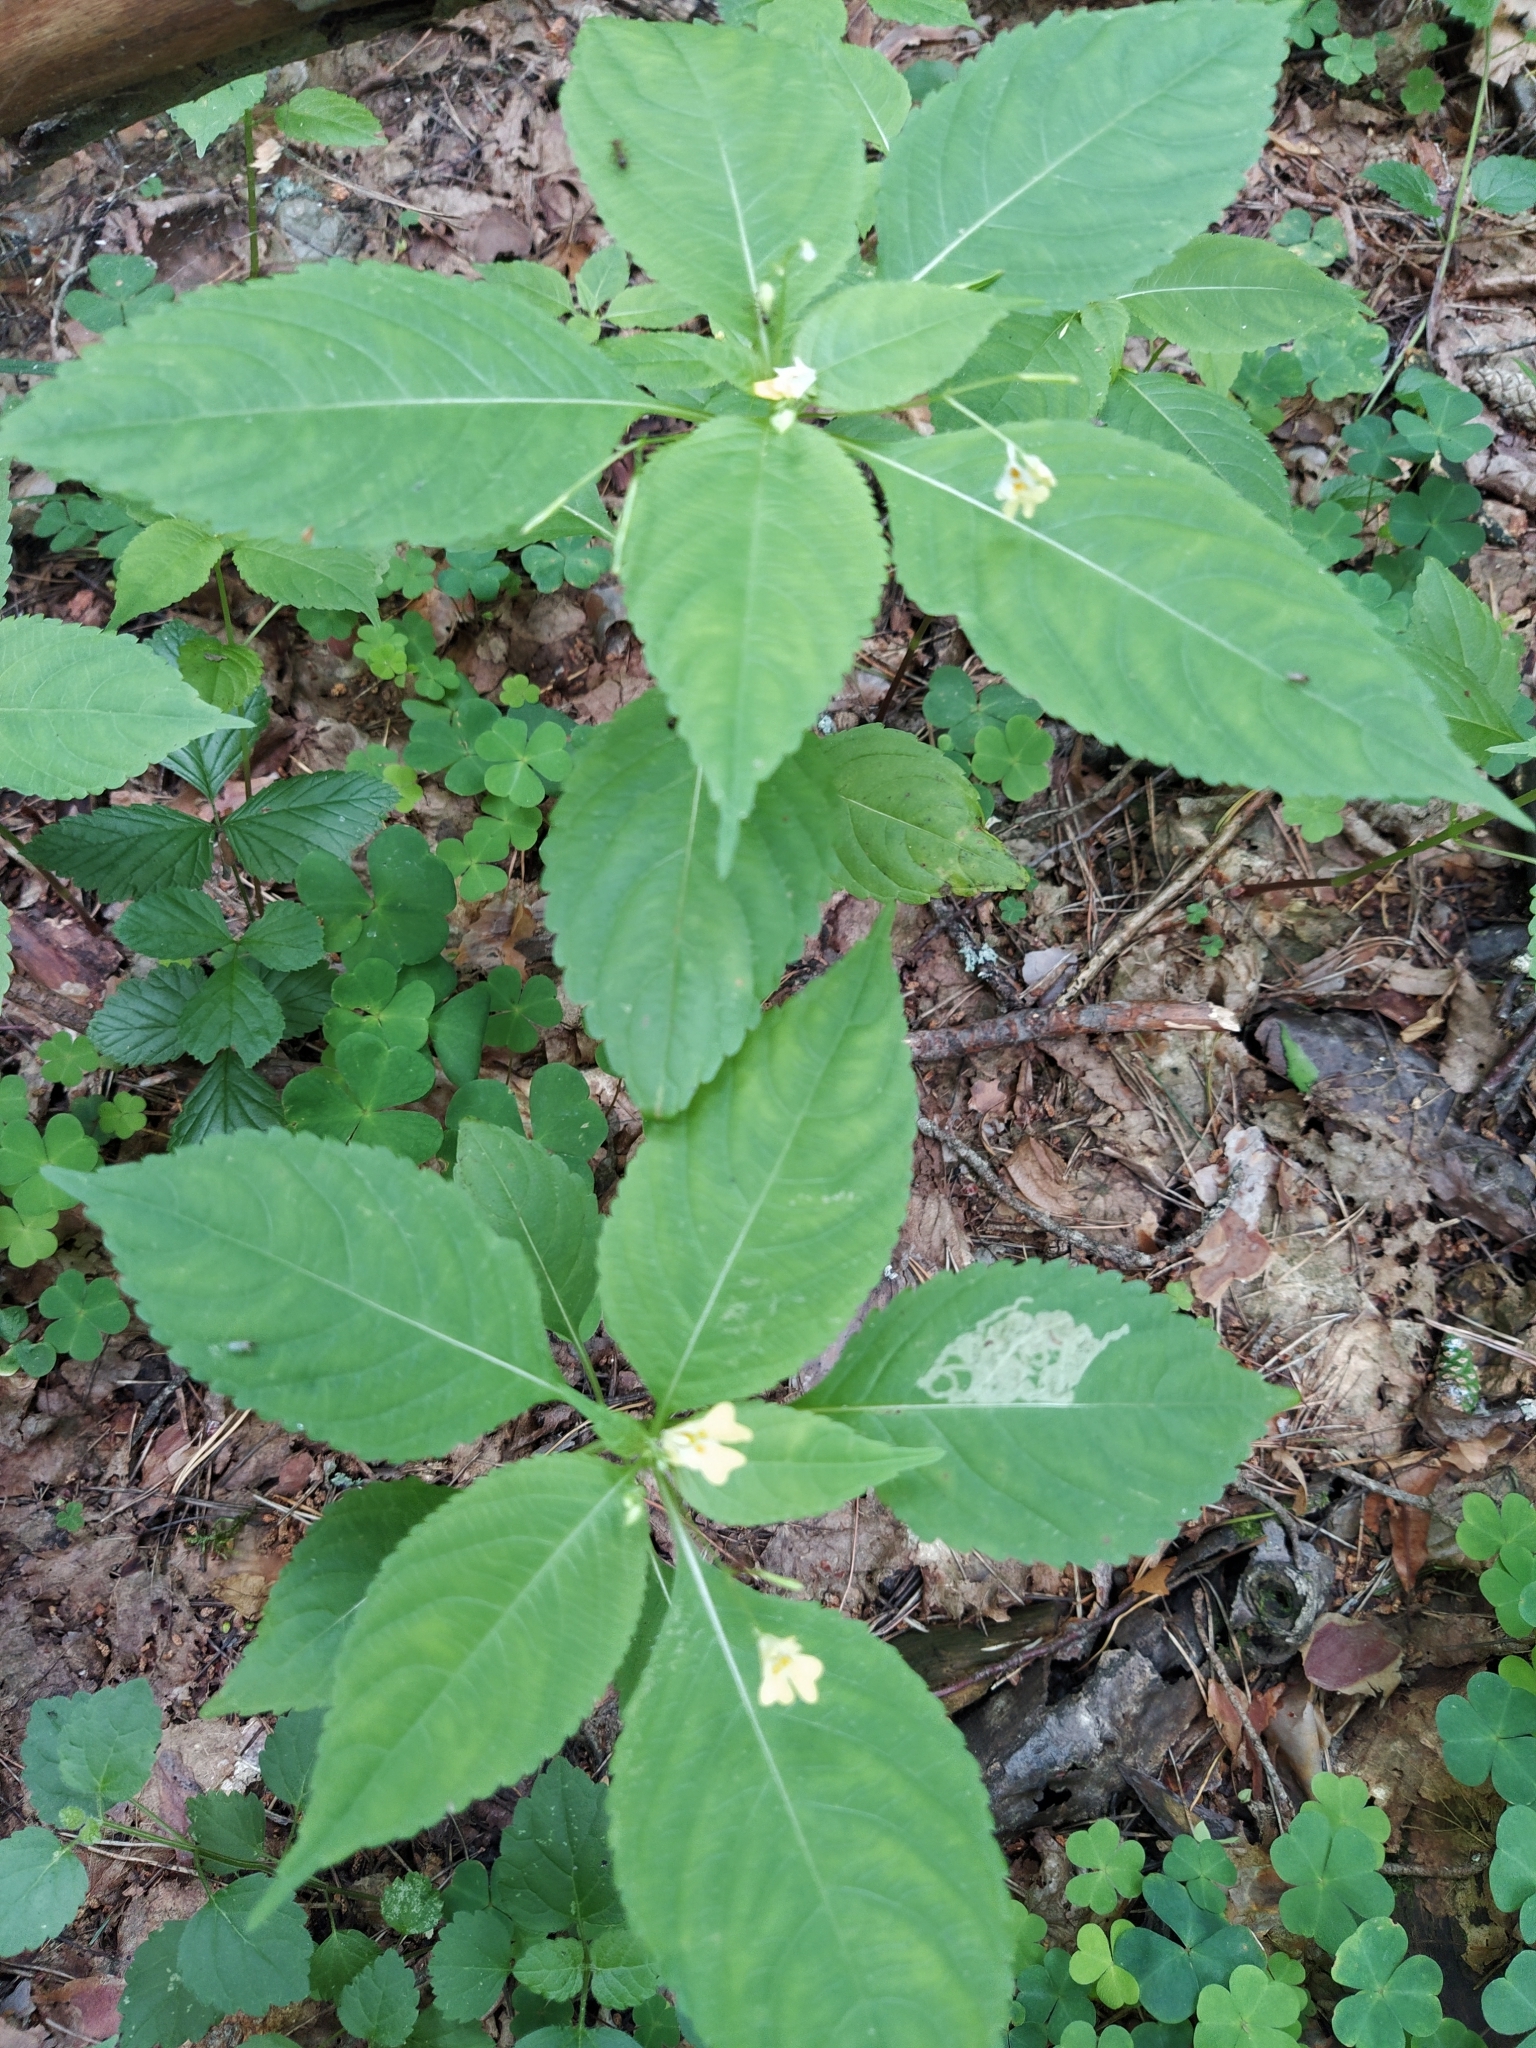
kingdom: Plantae
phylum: Tracheophyta
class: Magnoliopsida
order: Ericales
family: Balsaminaceae
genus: Impatiens
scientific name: Impatiens parviflora
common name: Small balsam
